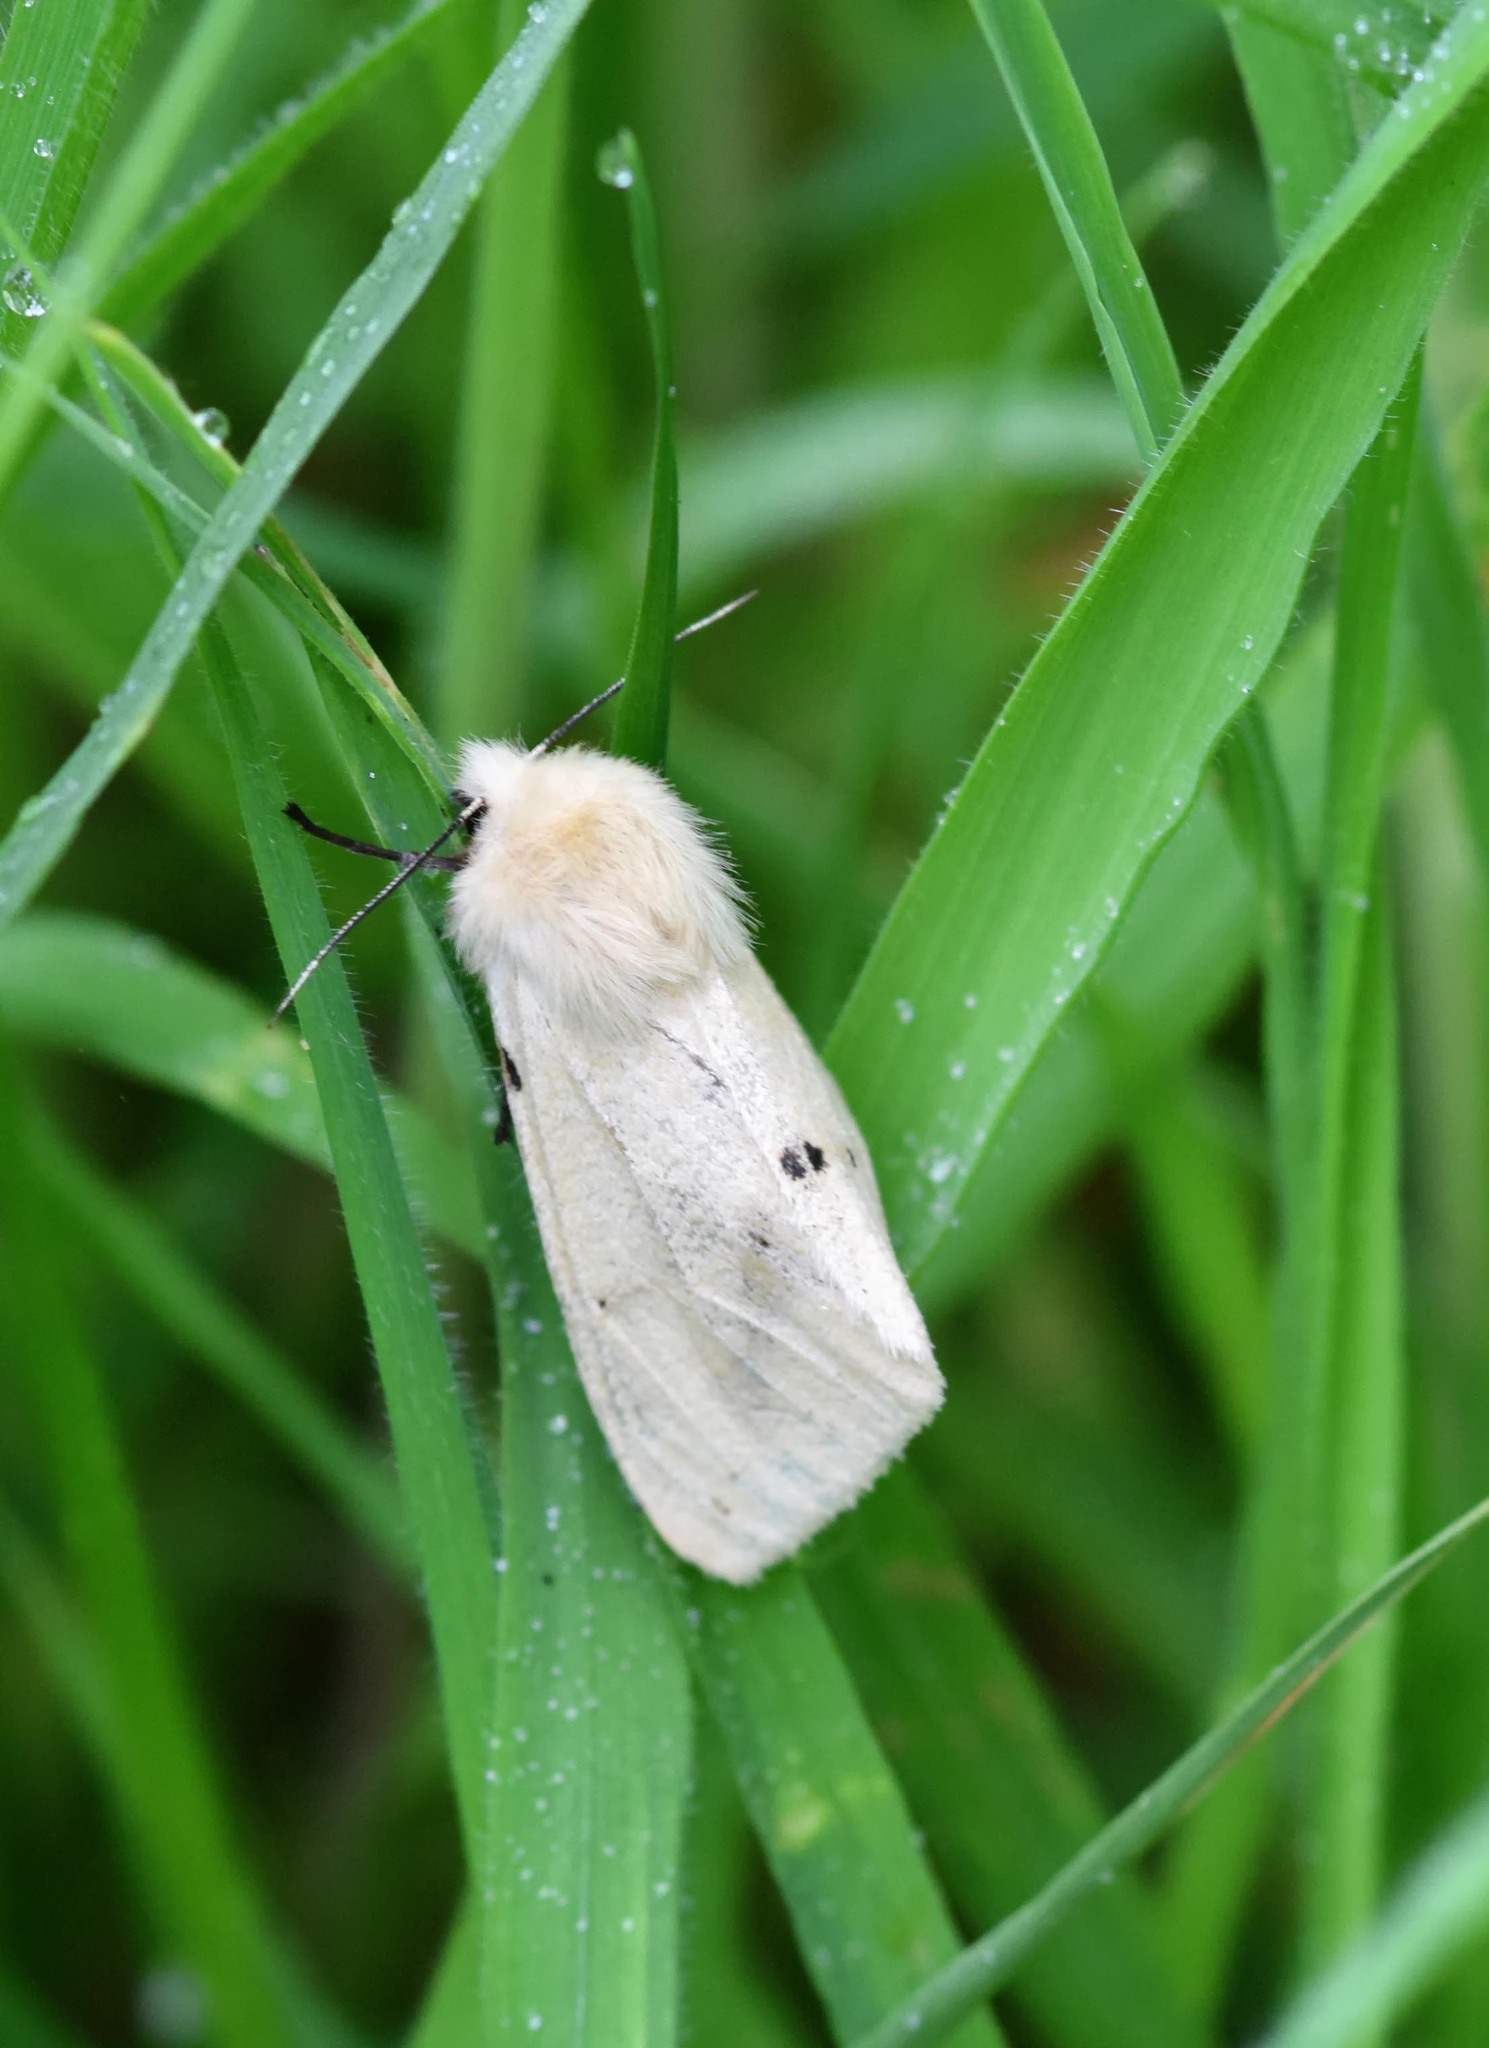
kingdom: Animalia
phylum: Arthropoda
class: Insecta
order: Lepidoptera
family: Erebidae
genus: Spilarctia
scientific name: Spilarctia lutea
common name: Buff ermine
